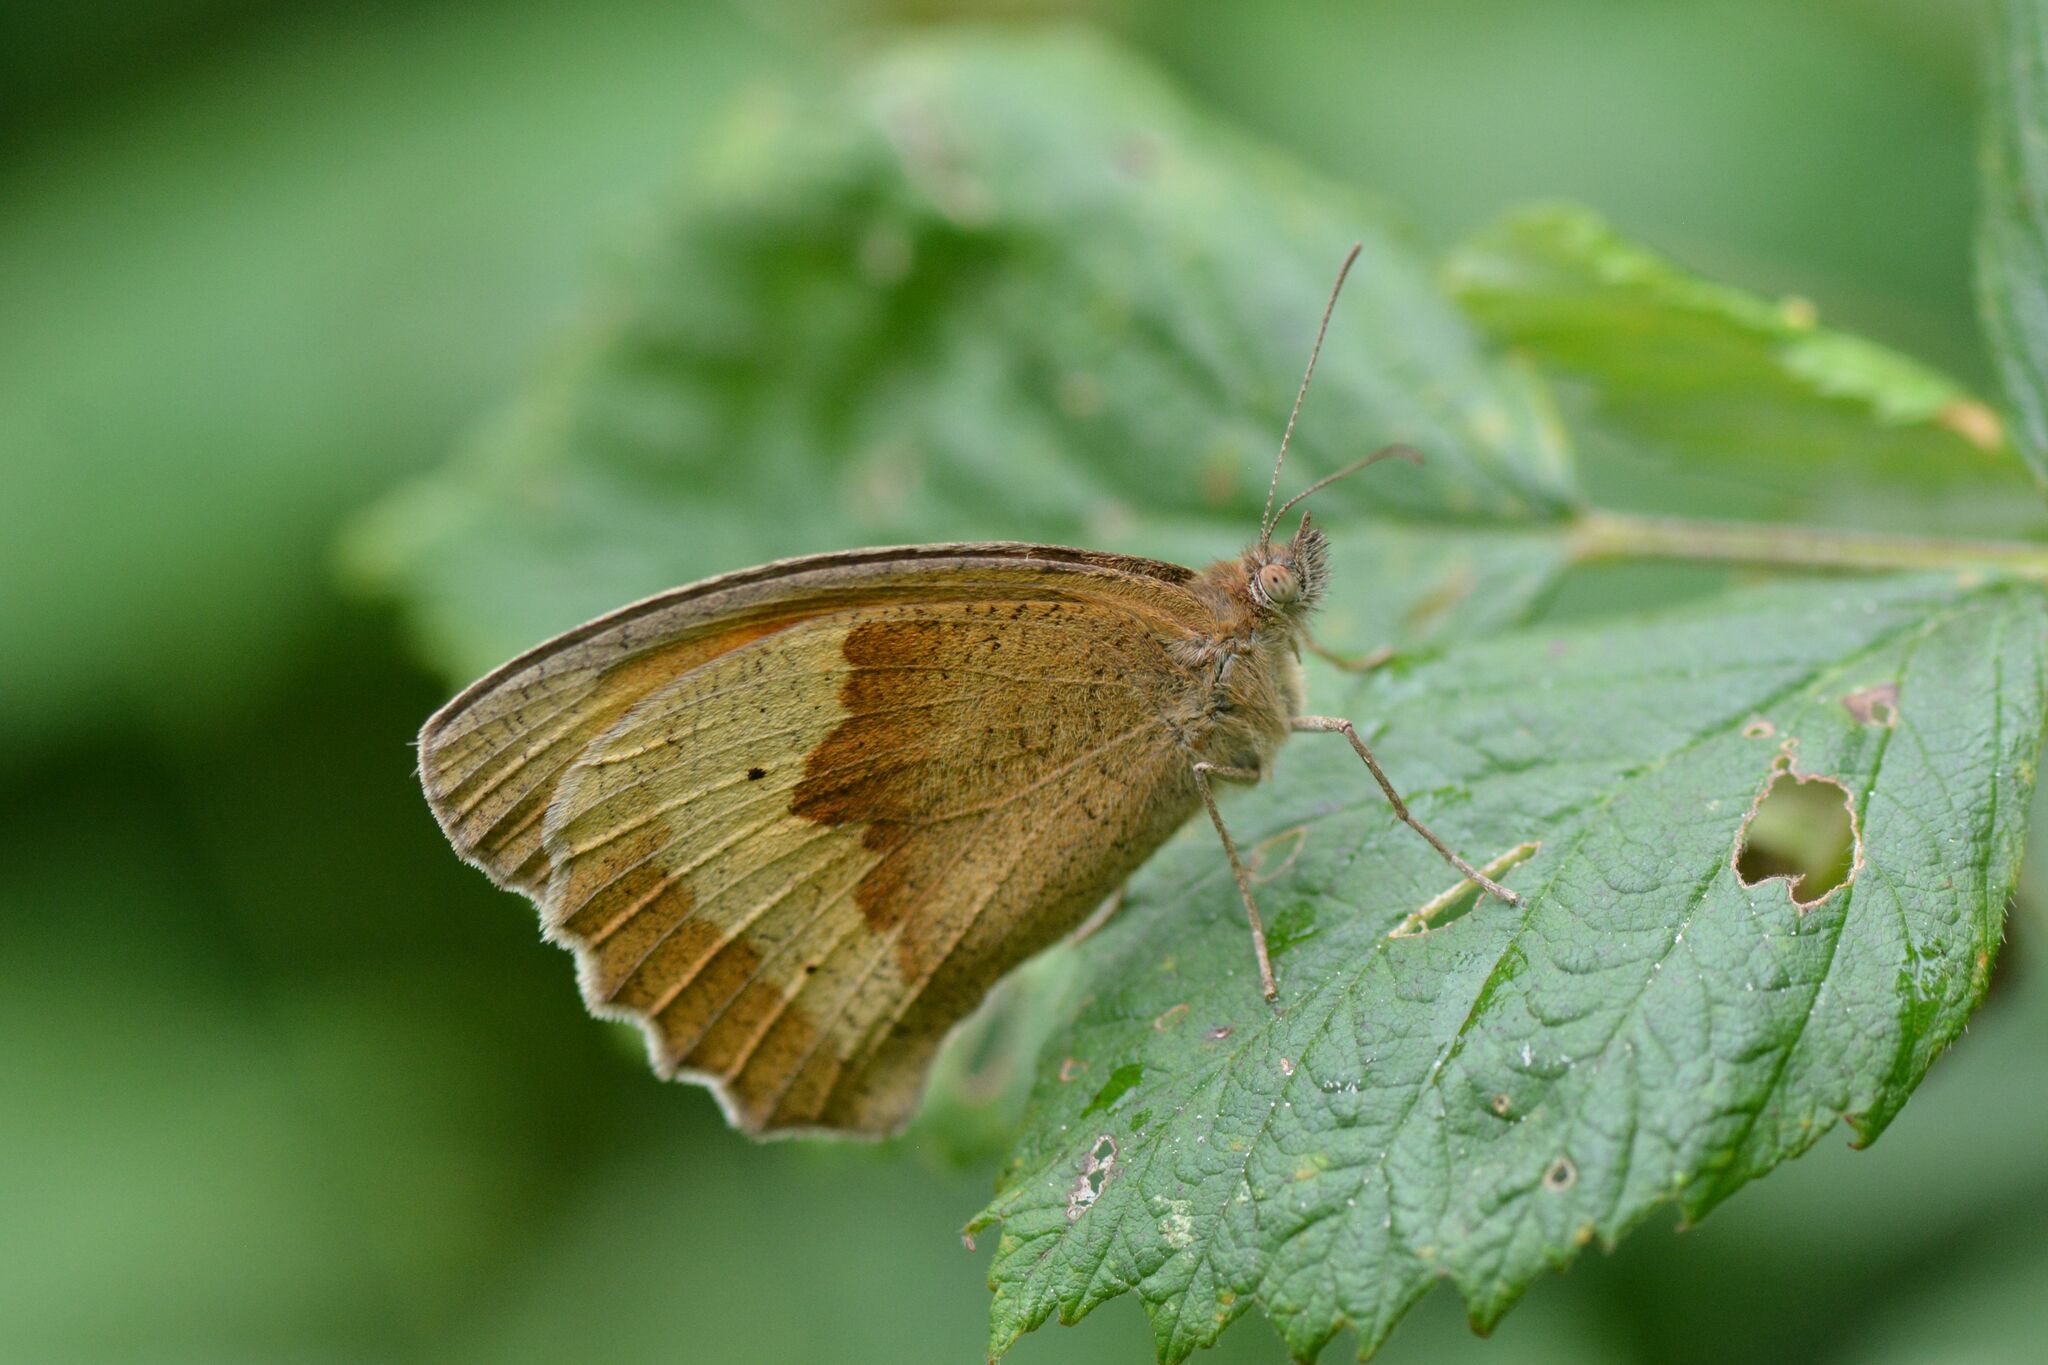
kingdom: Animalia
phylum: Arthropoda
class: Insecta
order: Lepidoptera
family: Nymphalidae
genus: Maniola
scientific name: Maniola jurtina
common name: Meadow brown
